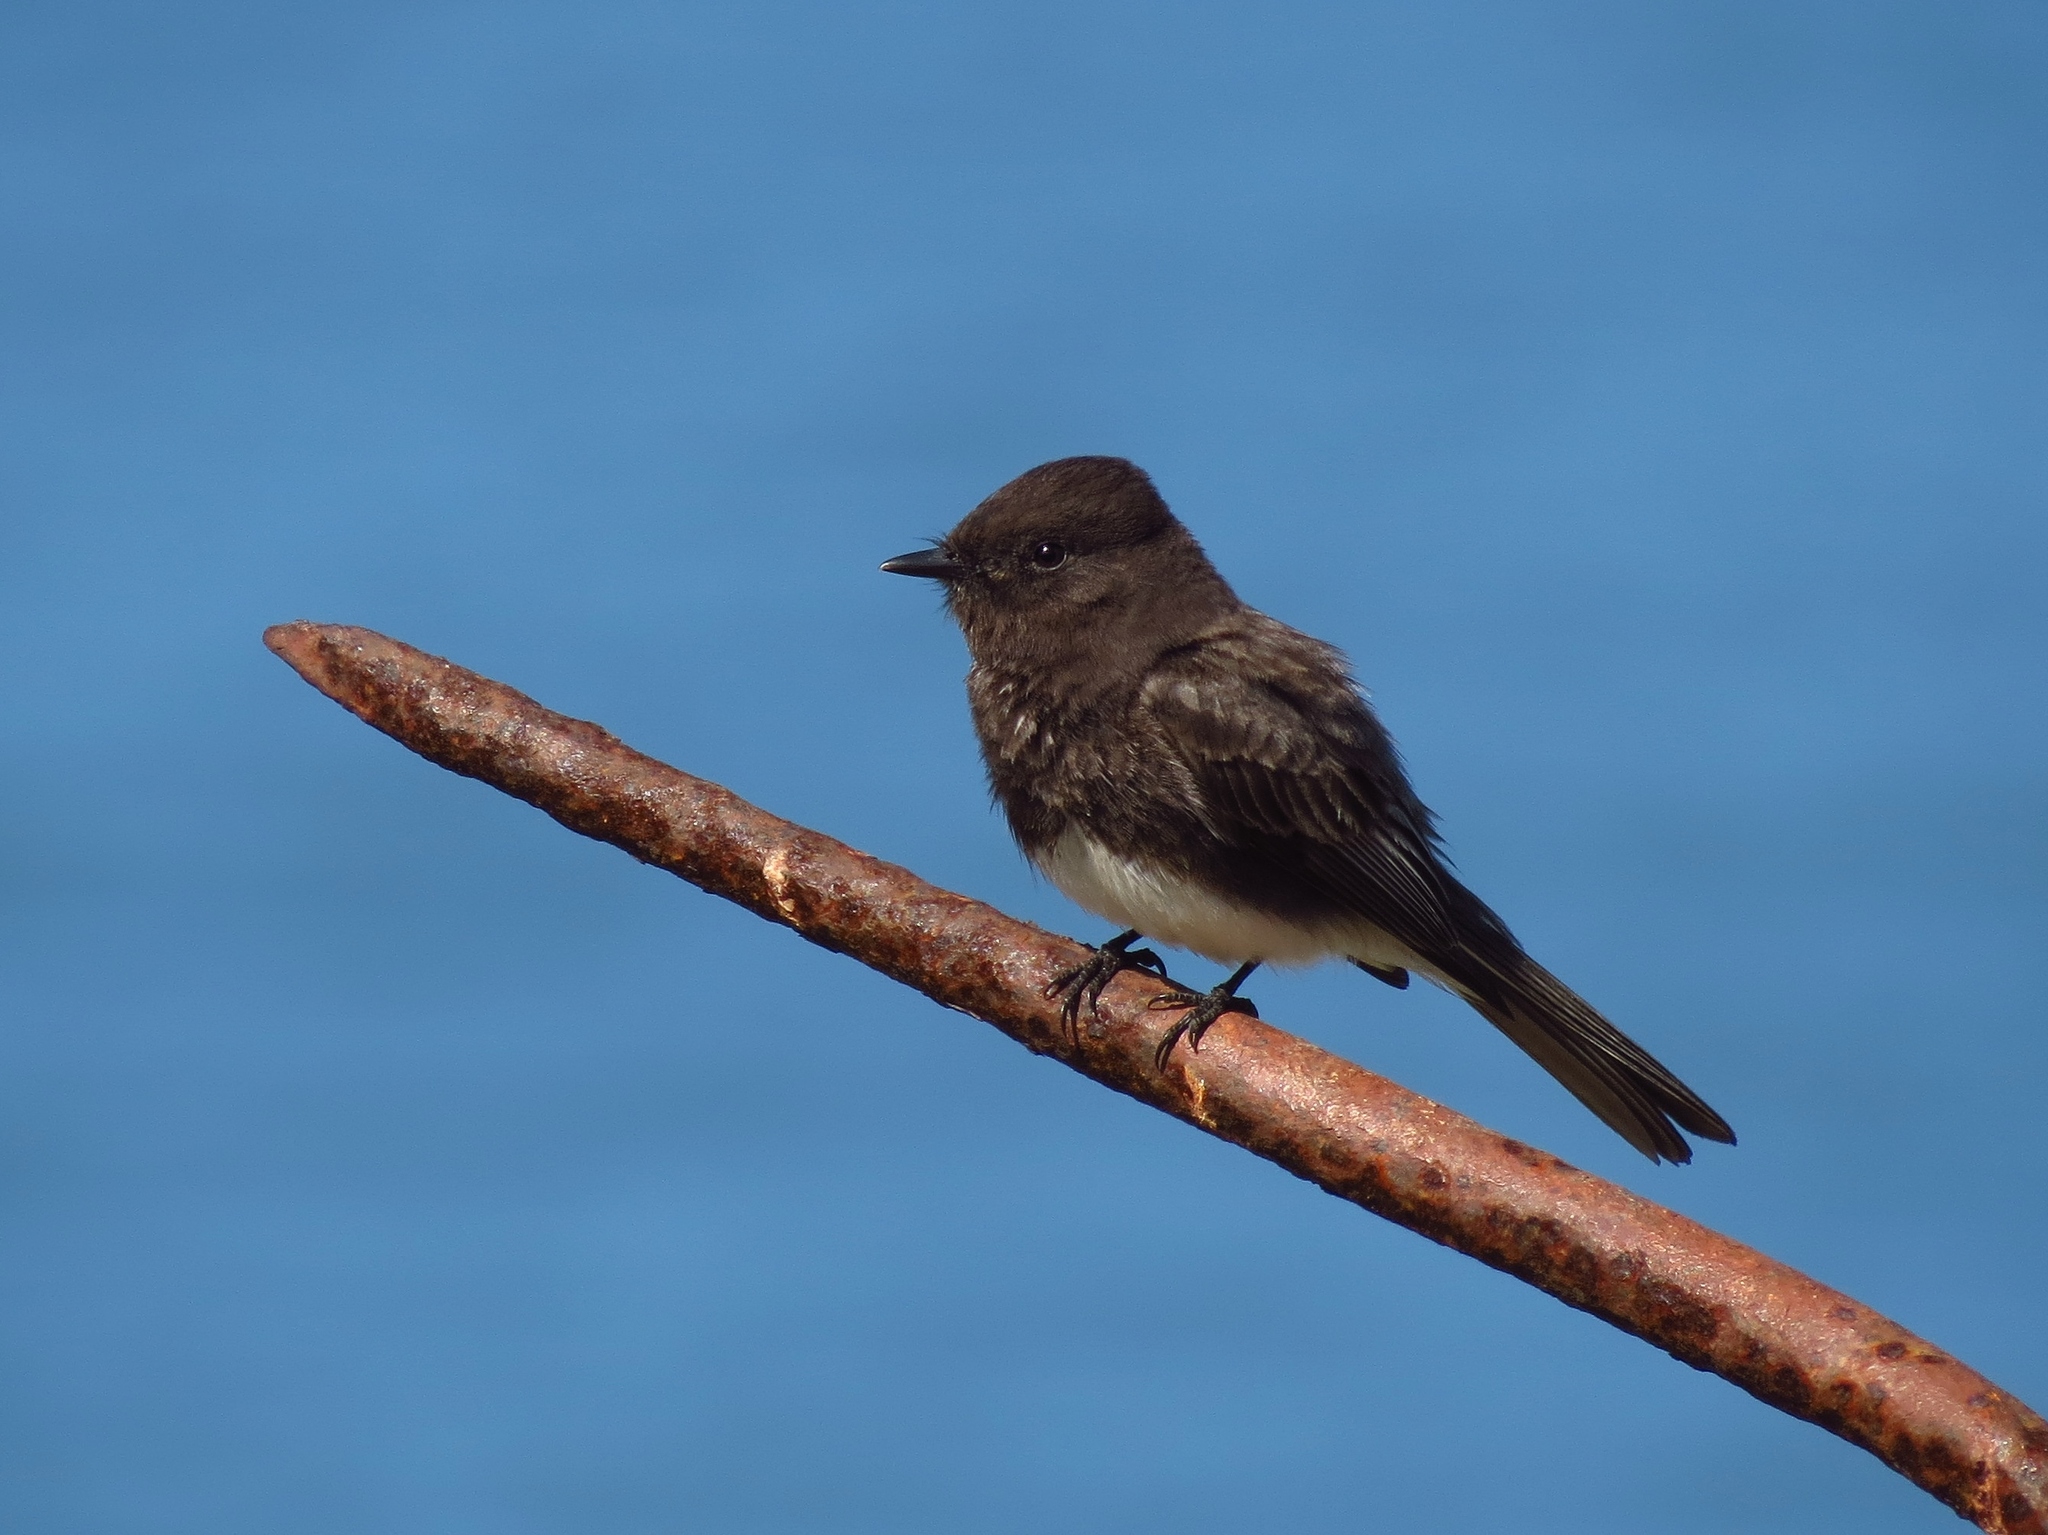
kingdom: Animalia
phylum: Chordata
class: Aves
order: Passeriformes
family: Tyrannidae
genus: Sayornis
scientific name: Sayornis nigricans
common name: Black phoebe
